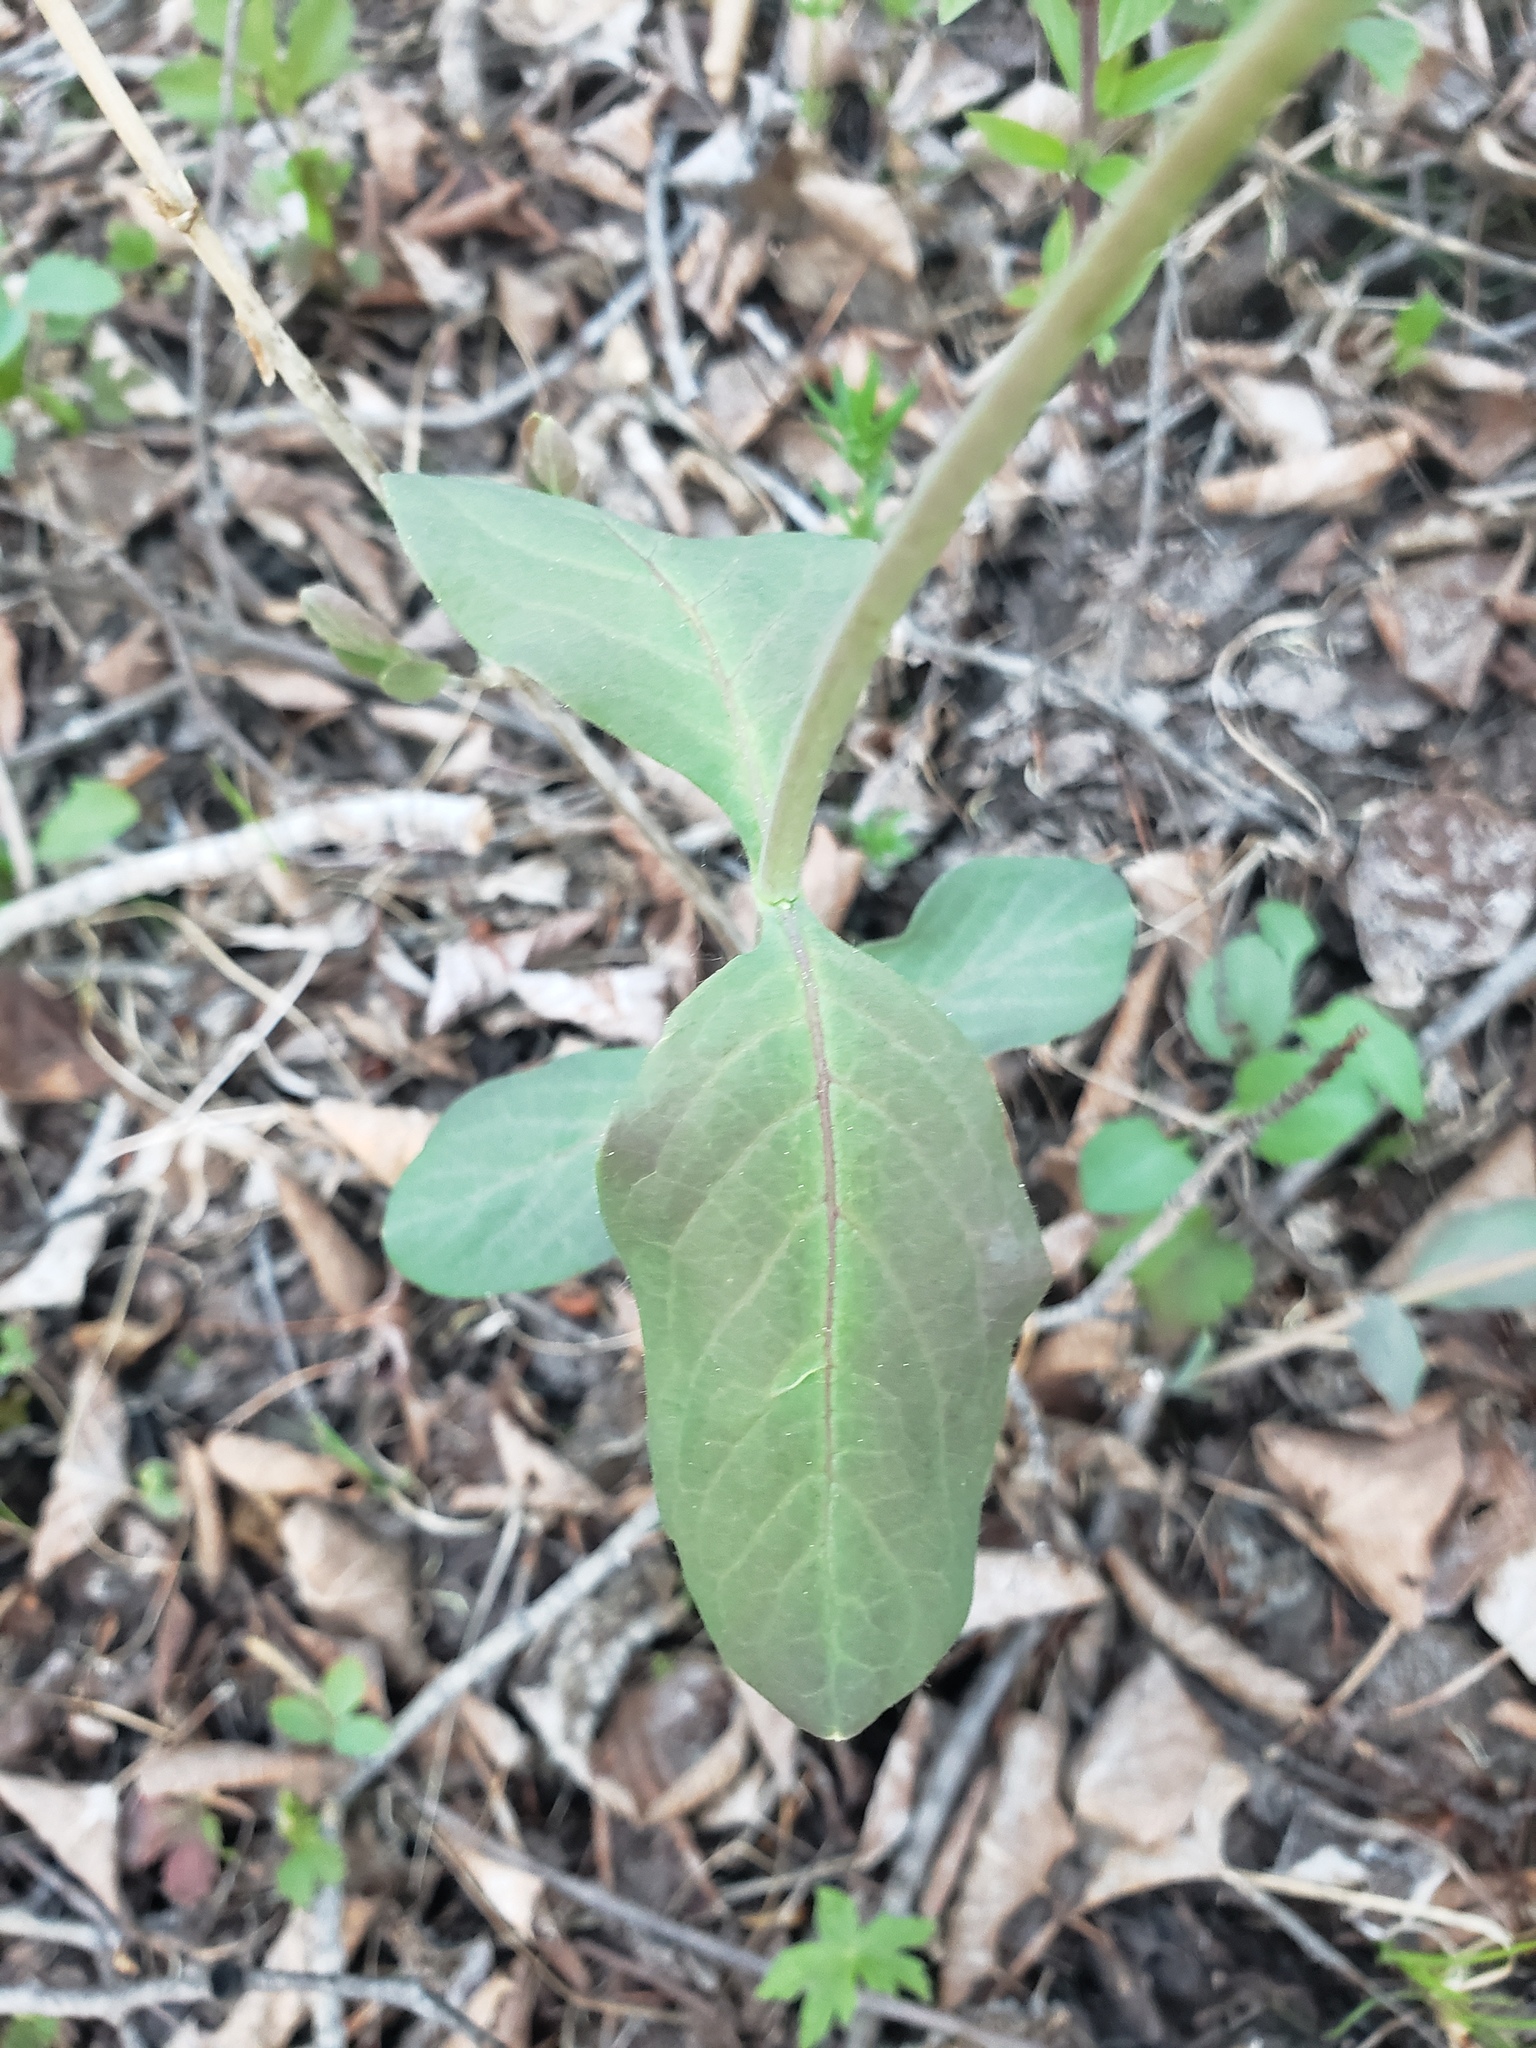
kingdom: Plantae
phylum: Tracheophyta
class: Magnoliopsida
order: Dipsacales
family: Caprifoliaceae
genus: Lonicera
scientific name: Lonicera dioica
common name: Limber honeysuckle
